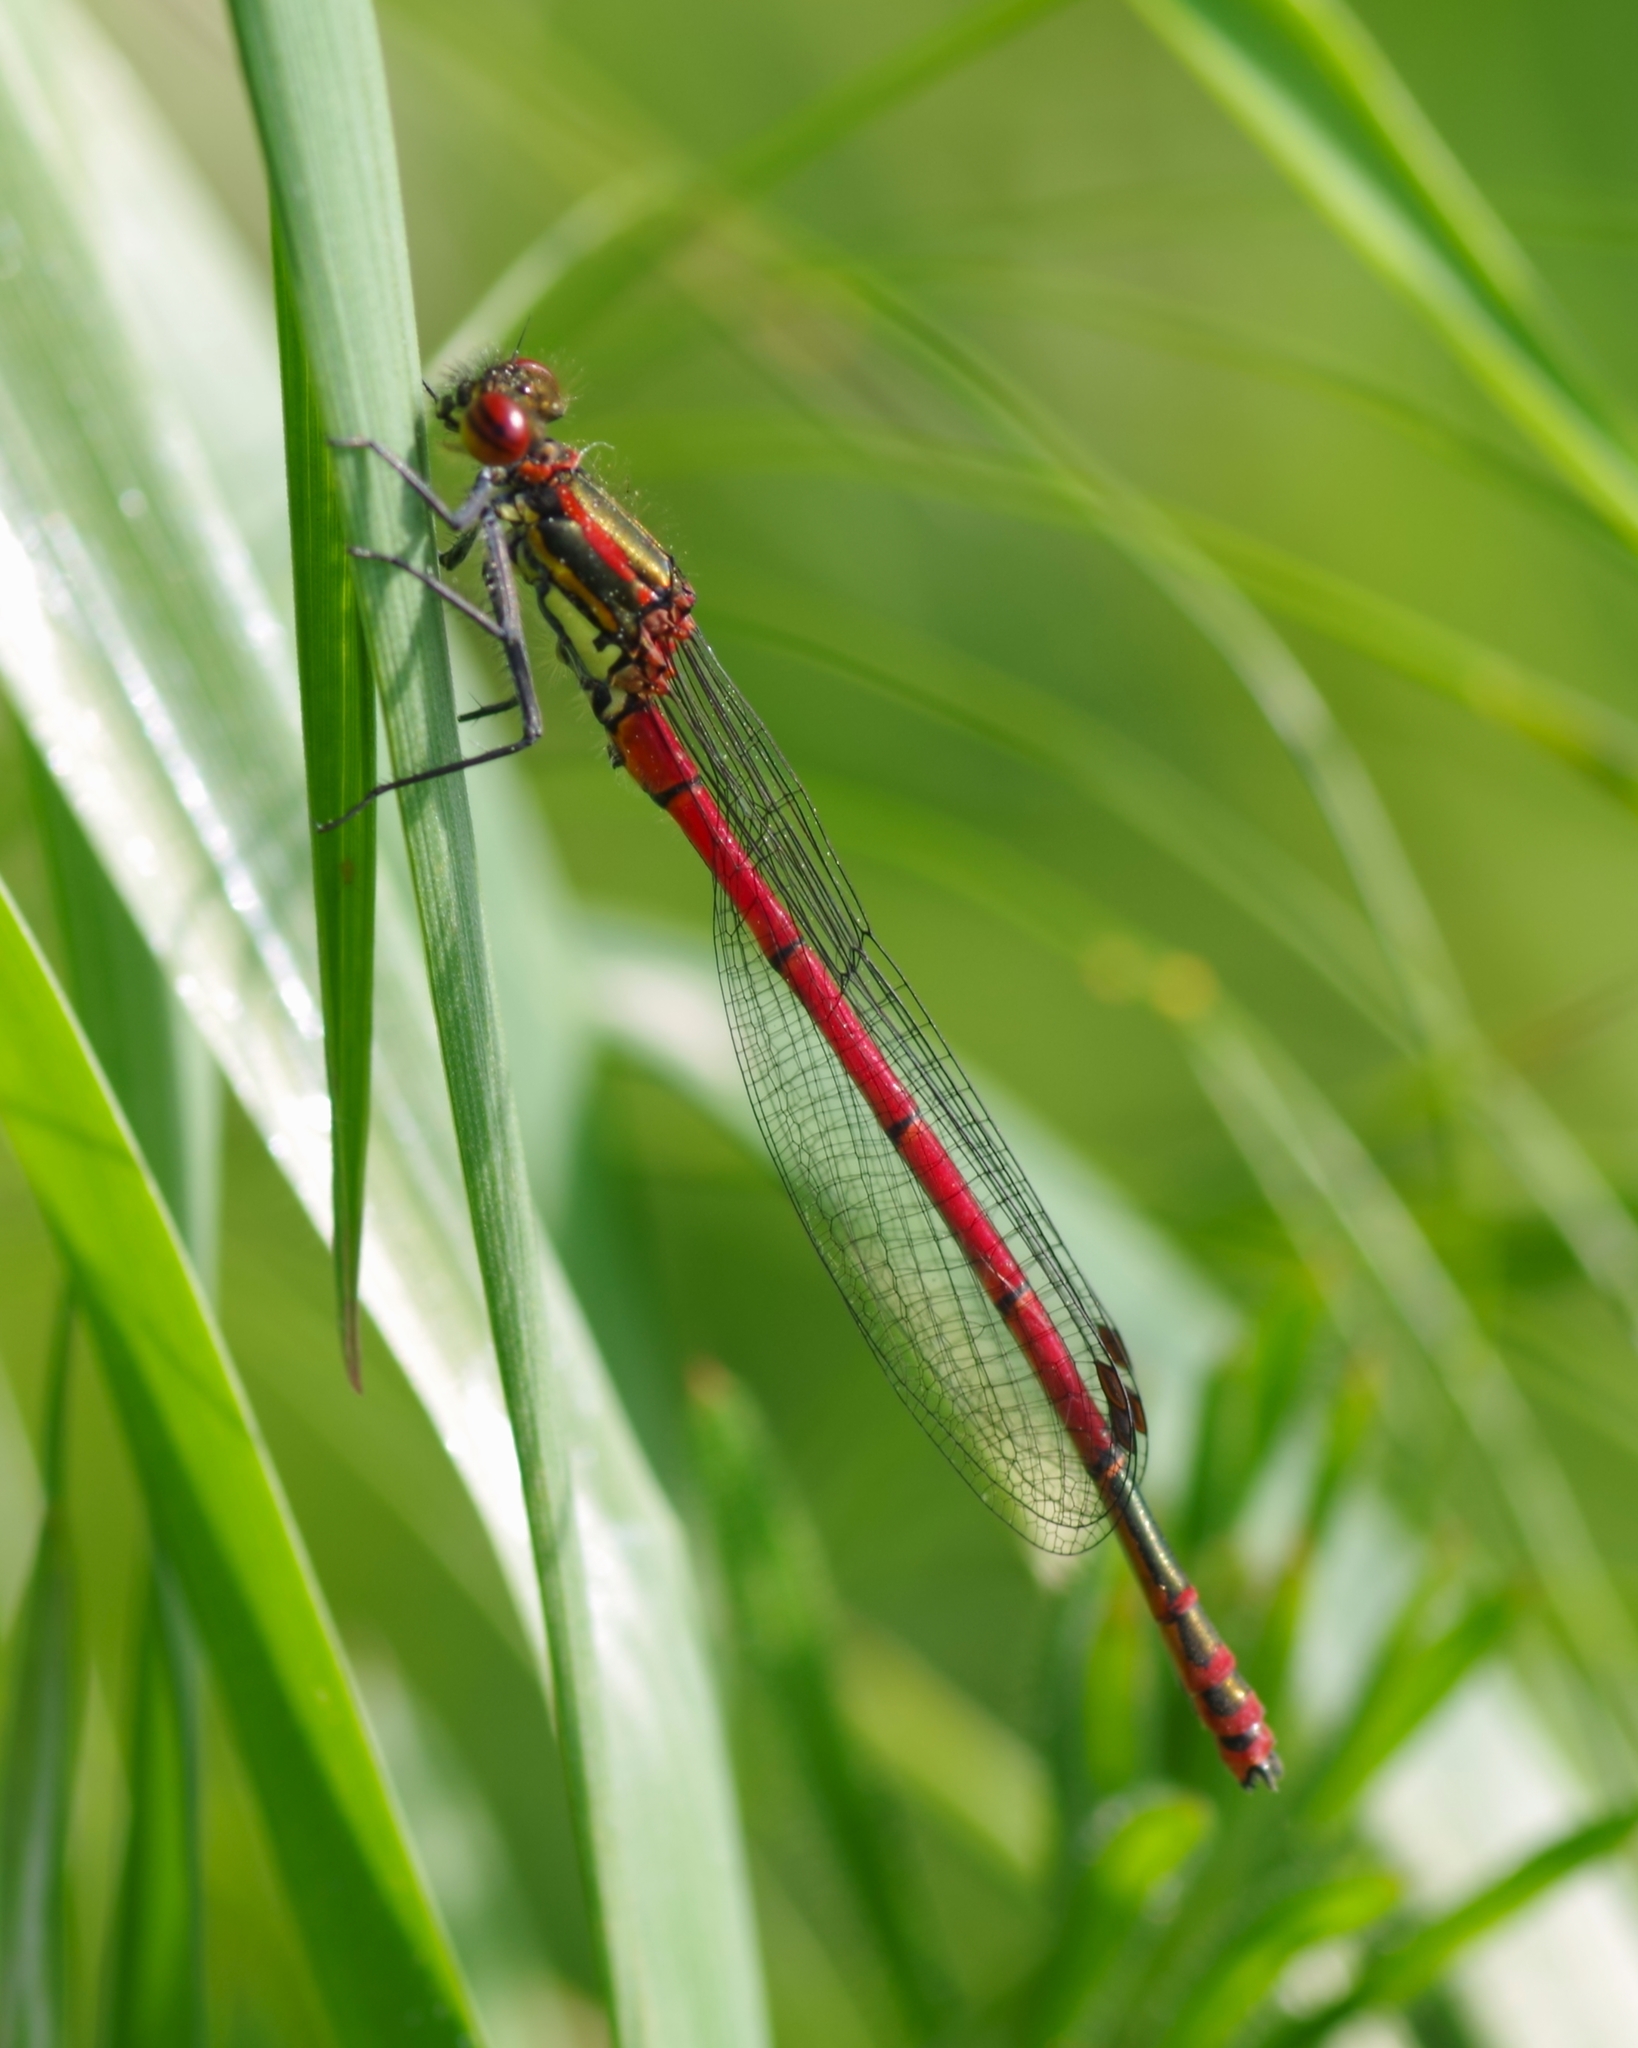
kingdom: Animalia
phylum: Arthropoda
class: Insecta
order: Odonata
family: Coenagrionidae
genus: Pyrrhosoma
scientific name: Pyrrhosoma nymphula
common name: Large red damsel
